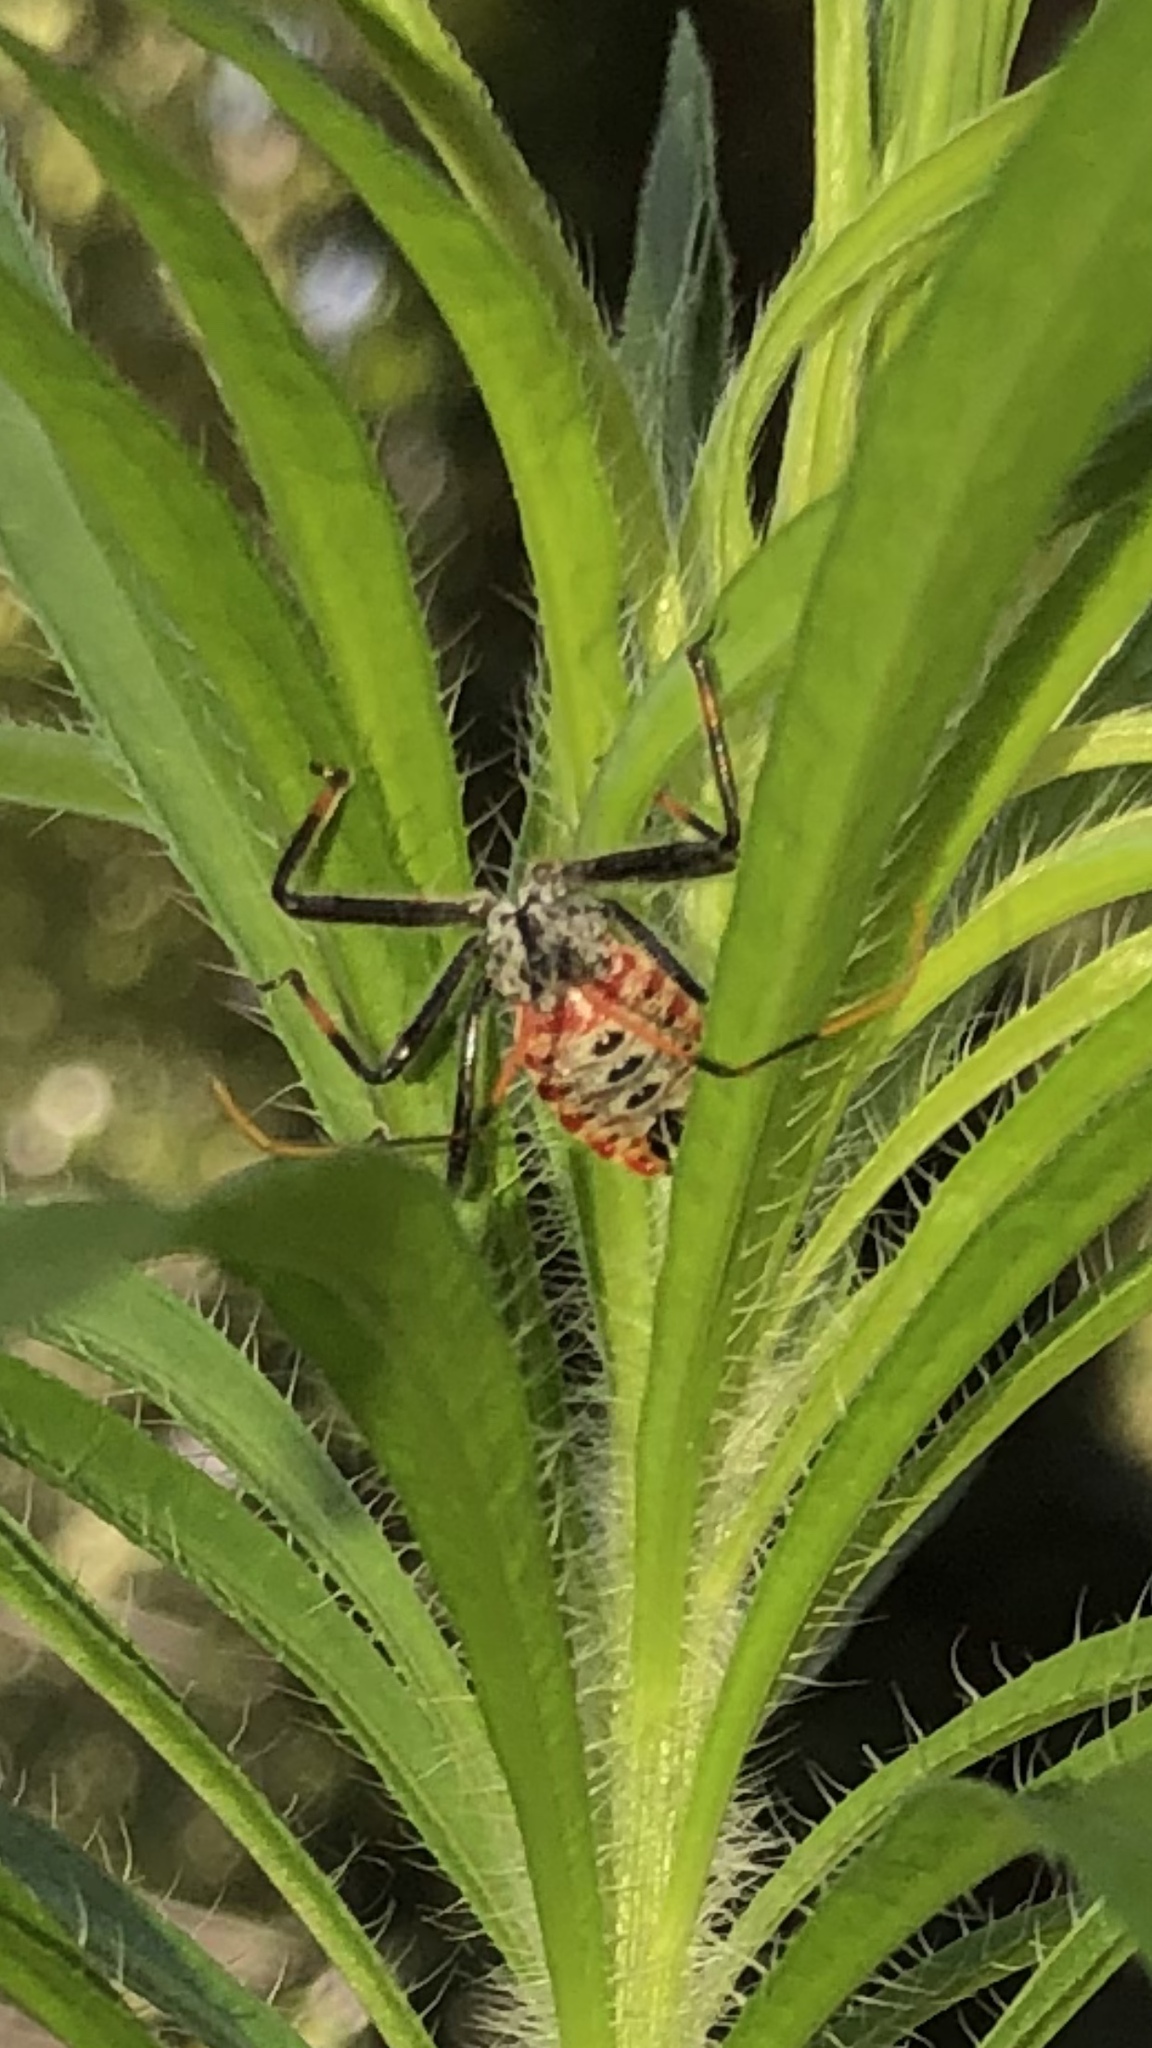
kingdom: Animalia
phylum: Arthropoda
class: Insecta
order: Hemiptera
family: Reduviidae
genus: Arilus
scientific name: Arilus cristatus
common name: North american wheel bug
